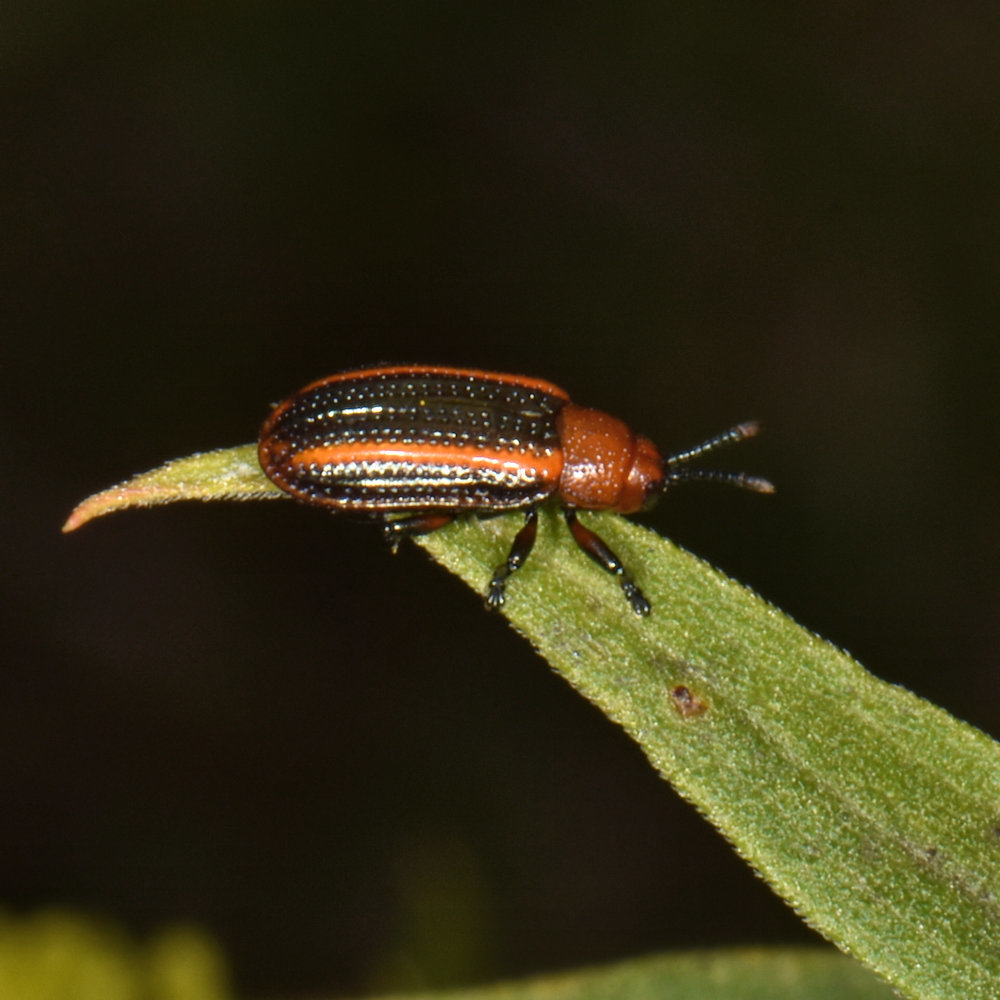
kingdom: Animalia
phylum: Arthropoda
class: Insecta
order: Coleoptera
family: Chrysomelidae
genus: Microrhopala
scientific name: Microrhopala vittata
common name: Goldenrod leaf miner beetle
